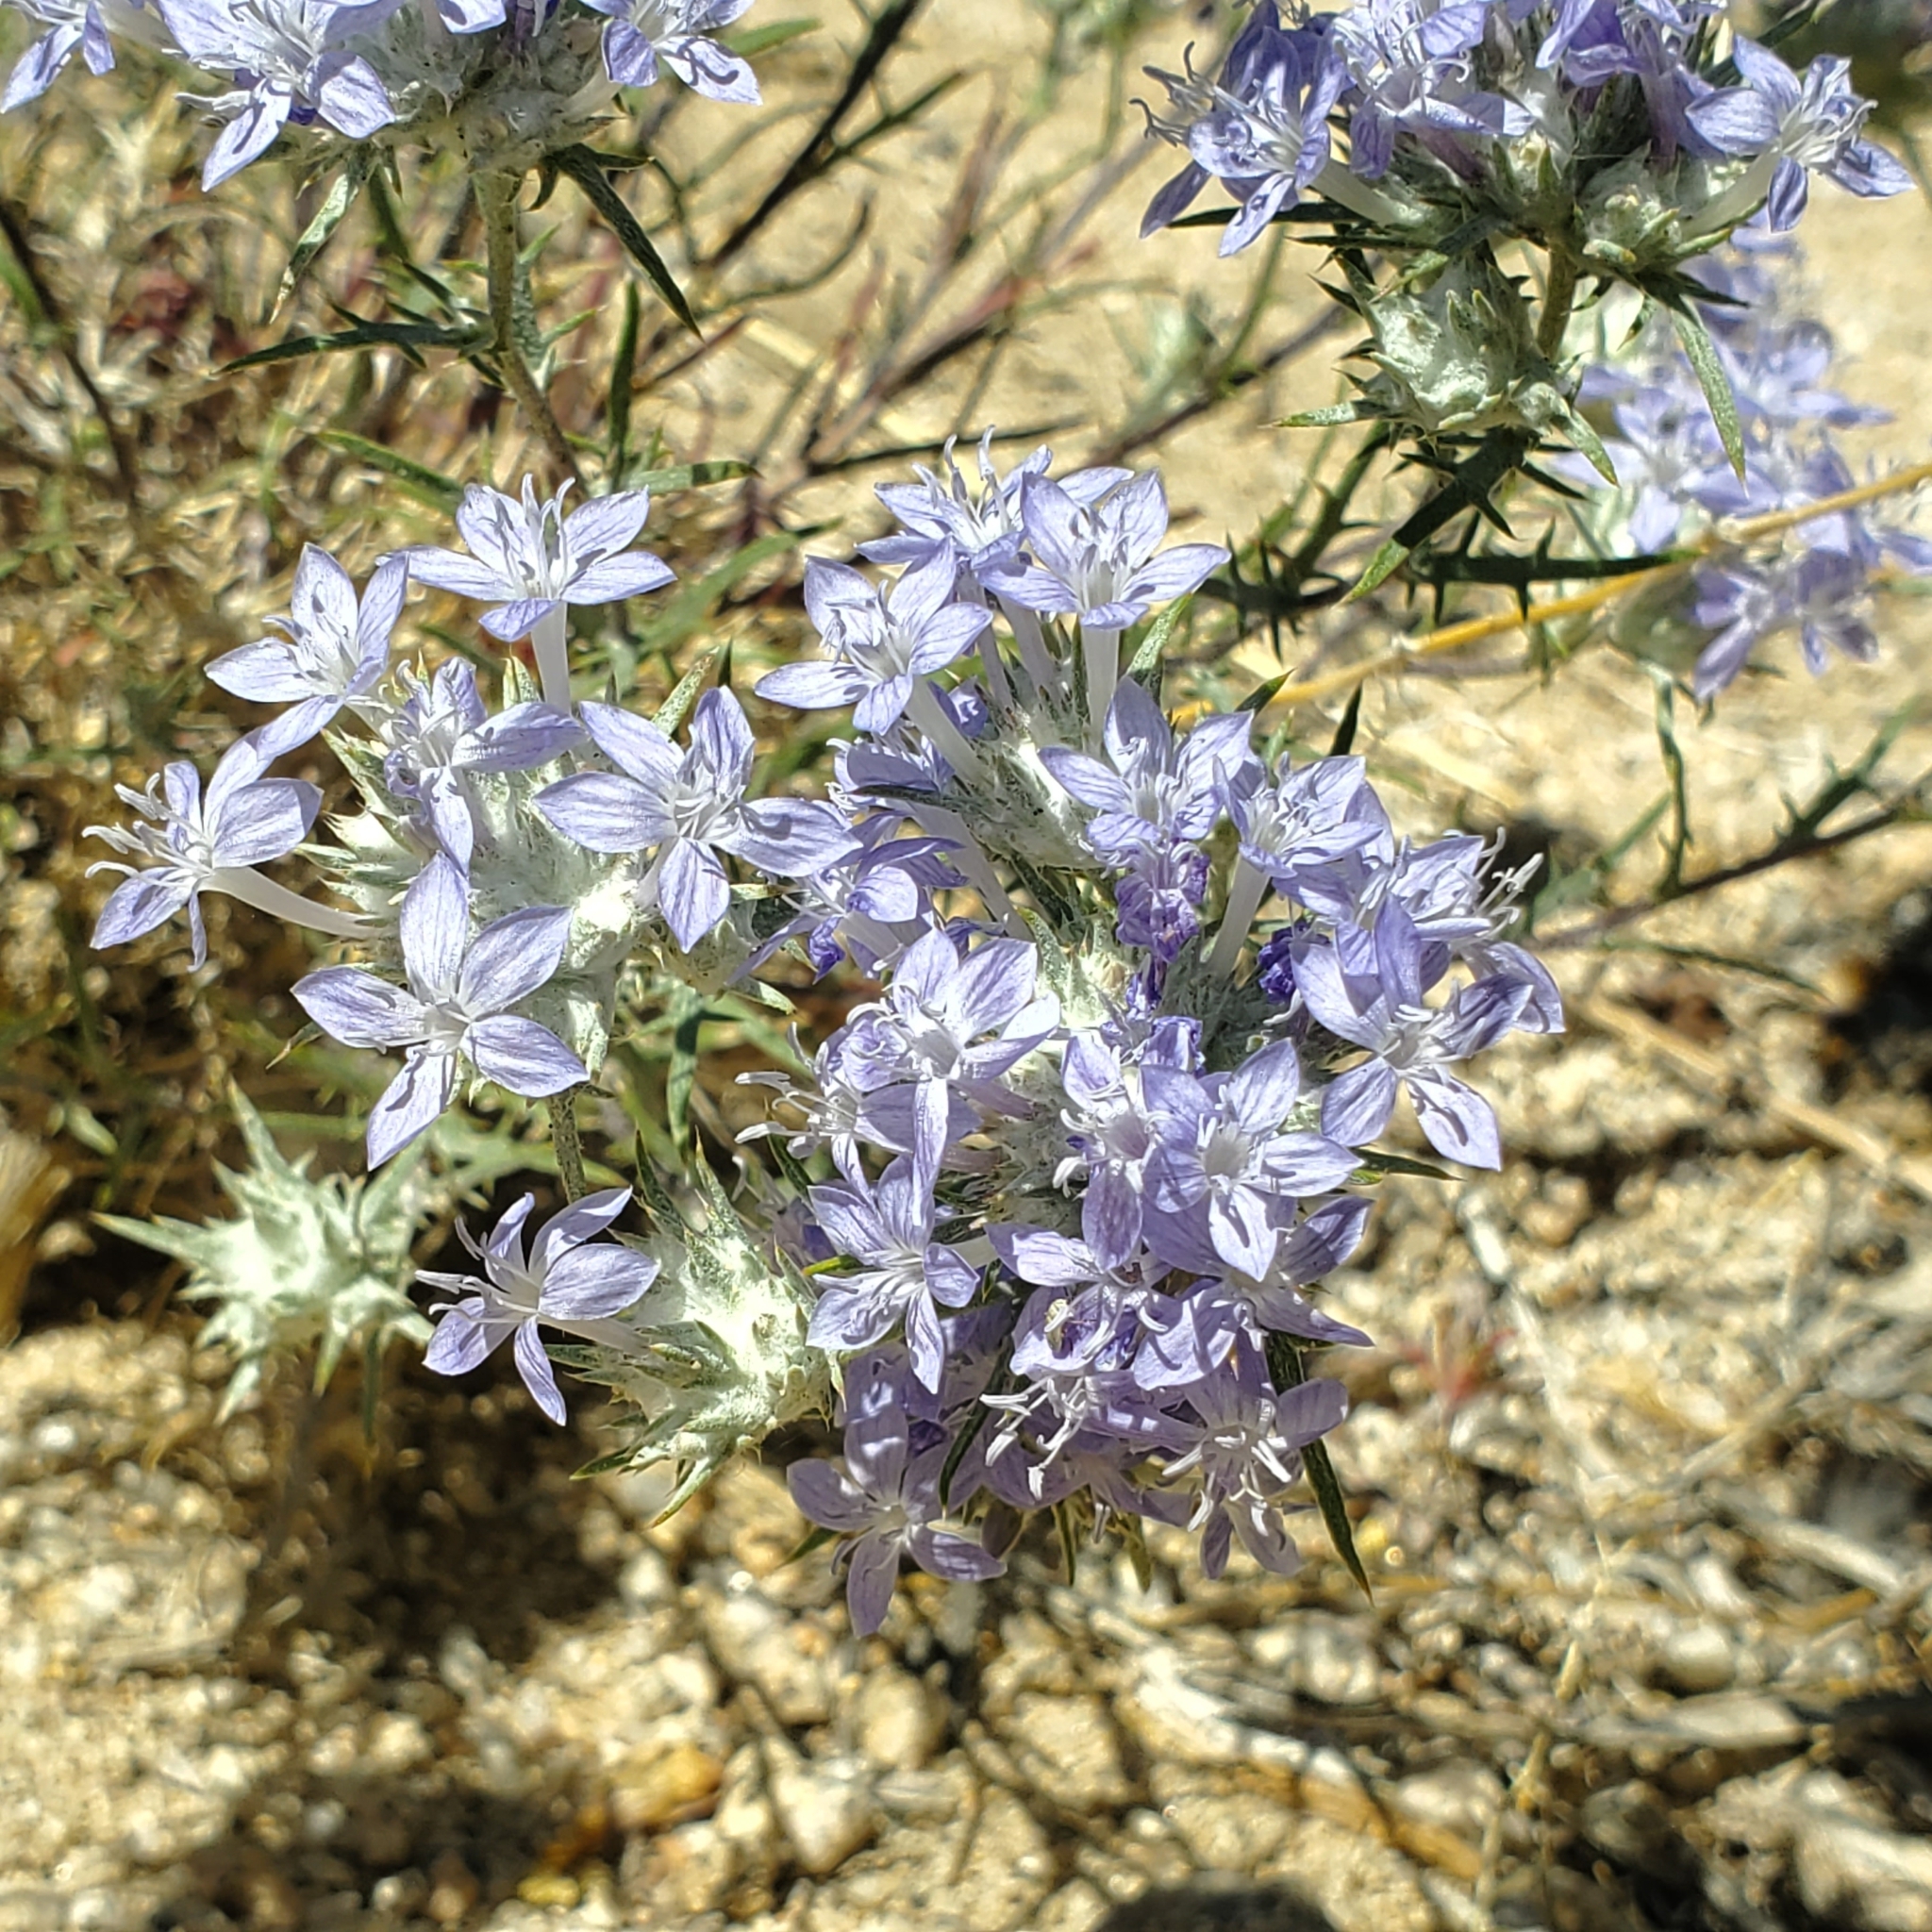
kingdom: Plantae
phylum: Tracheophyta
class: Magnoliopsida
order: Ericales
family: Polemoniaceae
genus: Eriastrum
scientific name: Eriastrum densifolium
